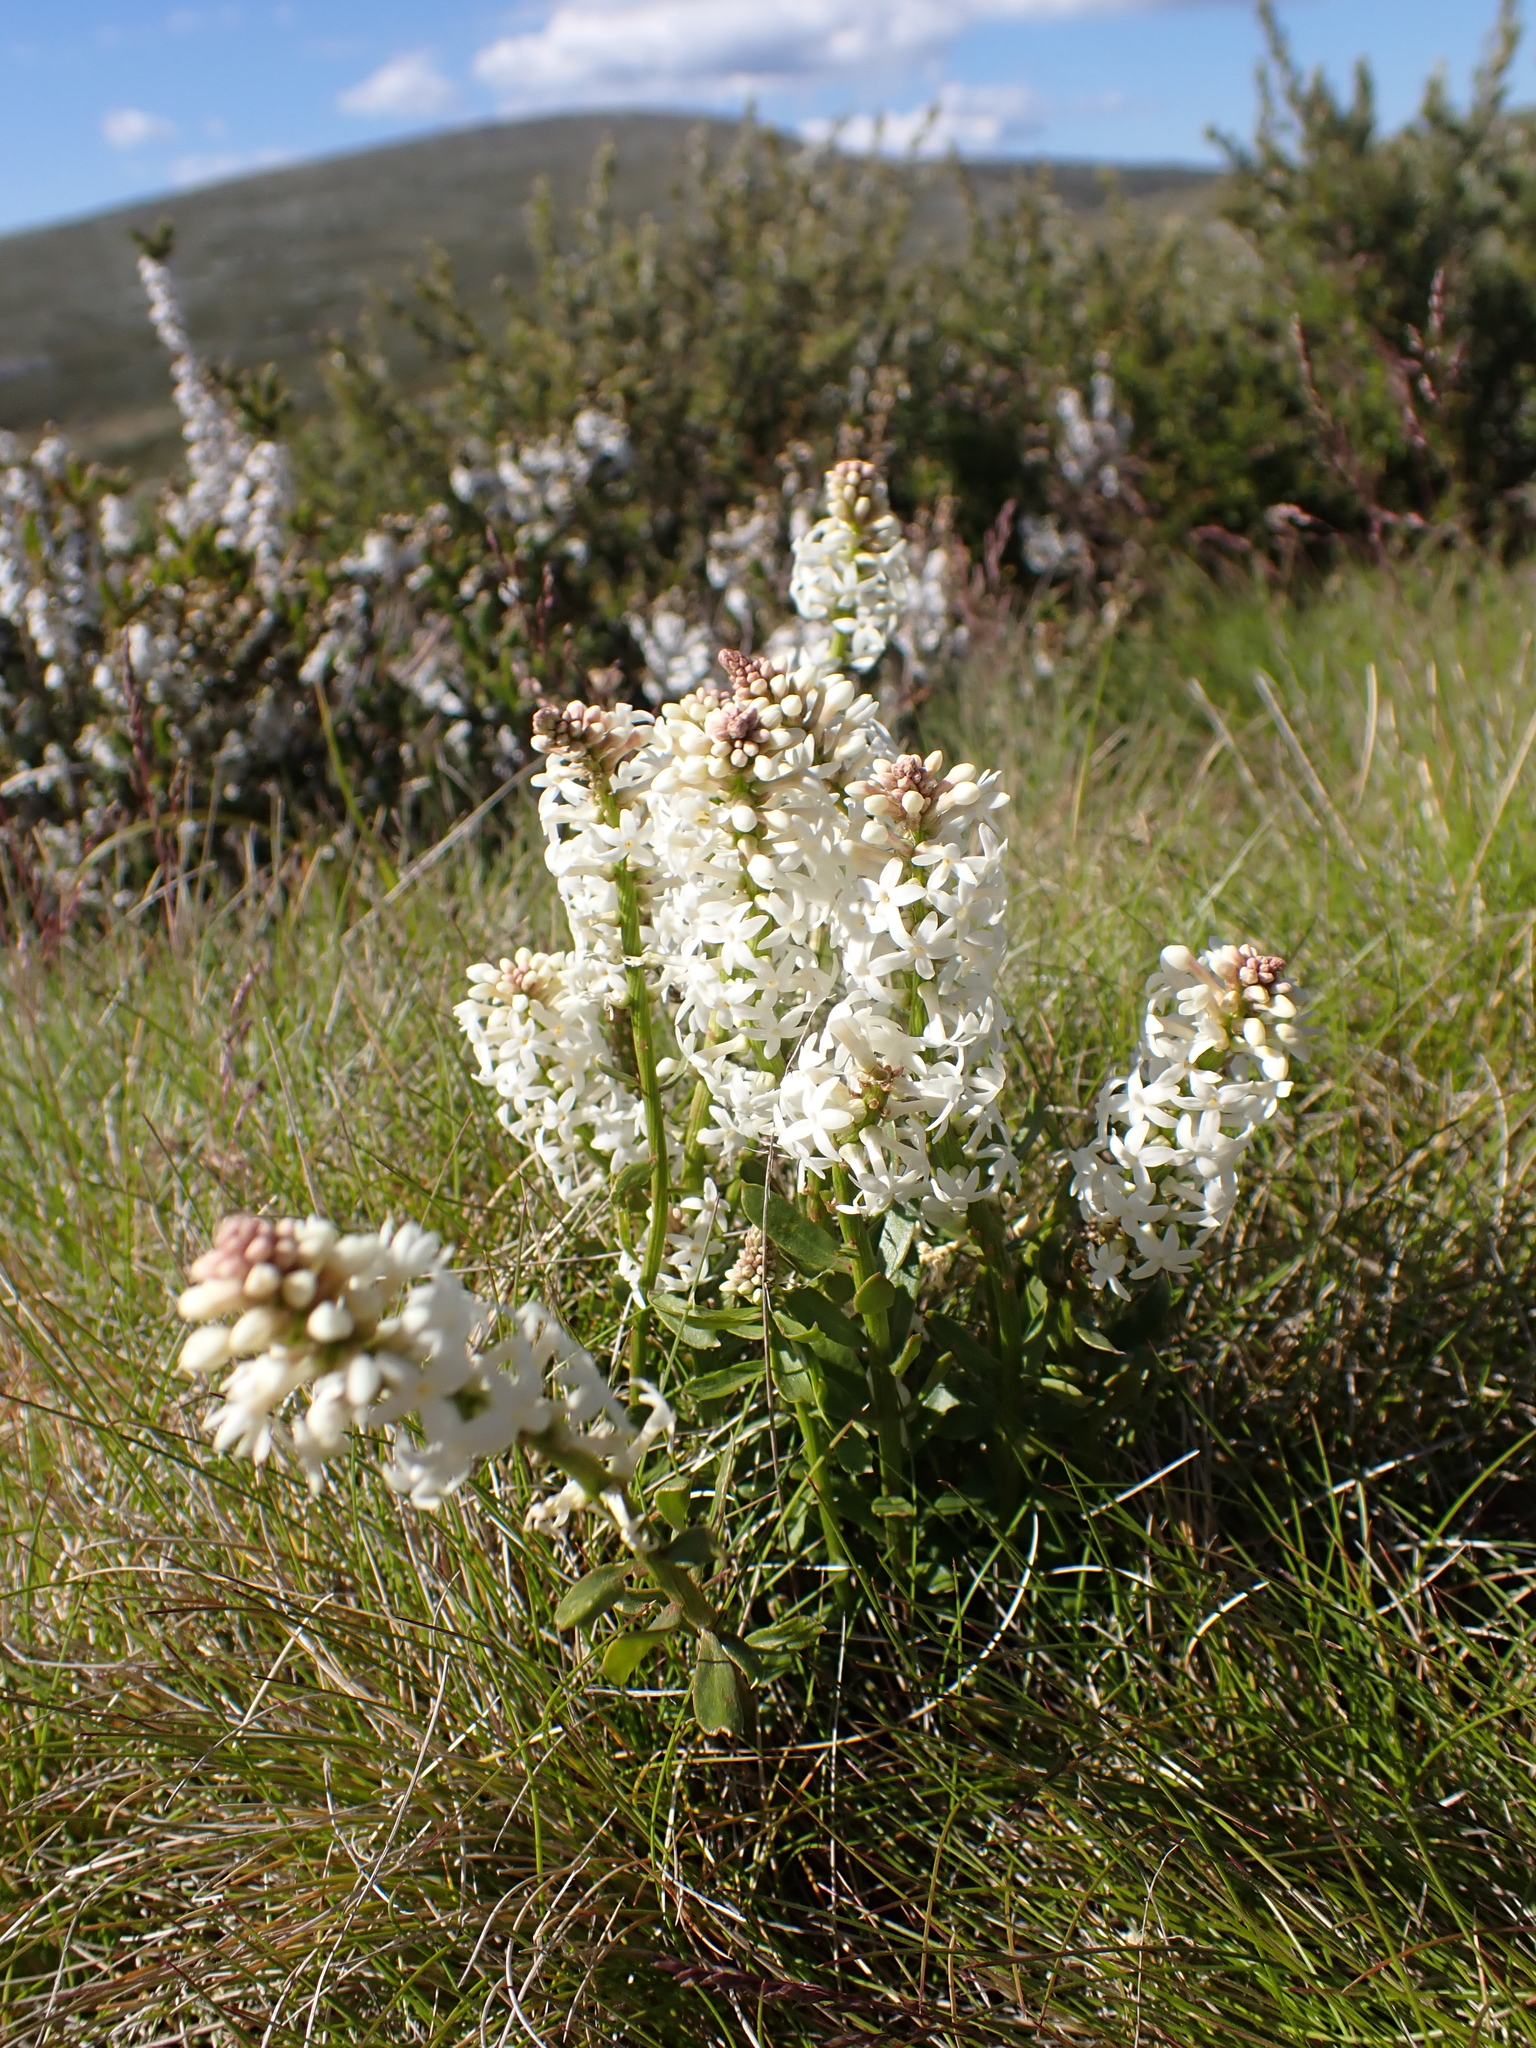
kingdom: Plantae
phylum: Tracheophyta
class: Magnoliopsida
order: Celastrales
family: Celastraceae
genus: Stackhousia
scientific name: Stackhousia monogyna
